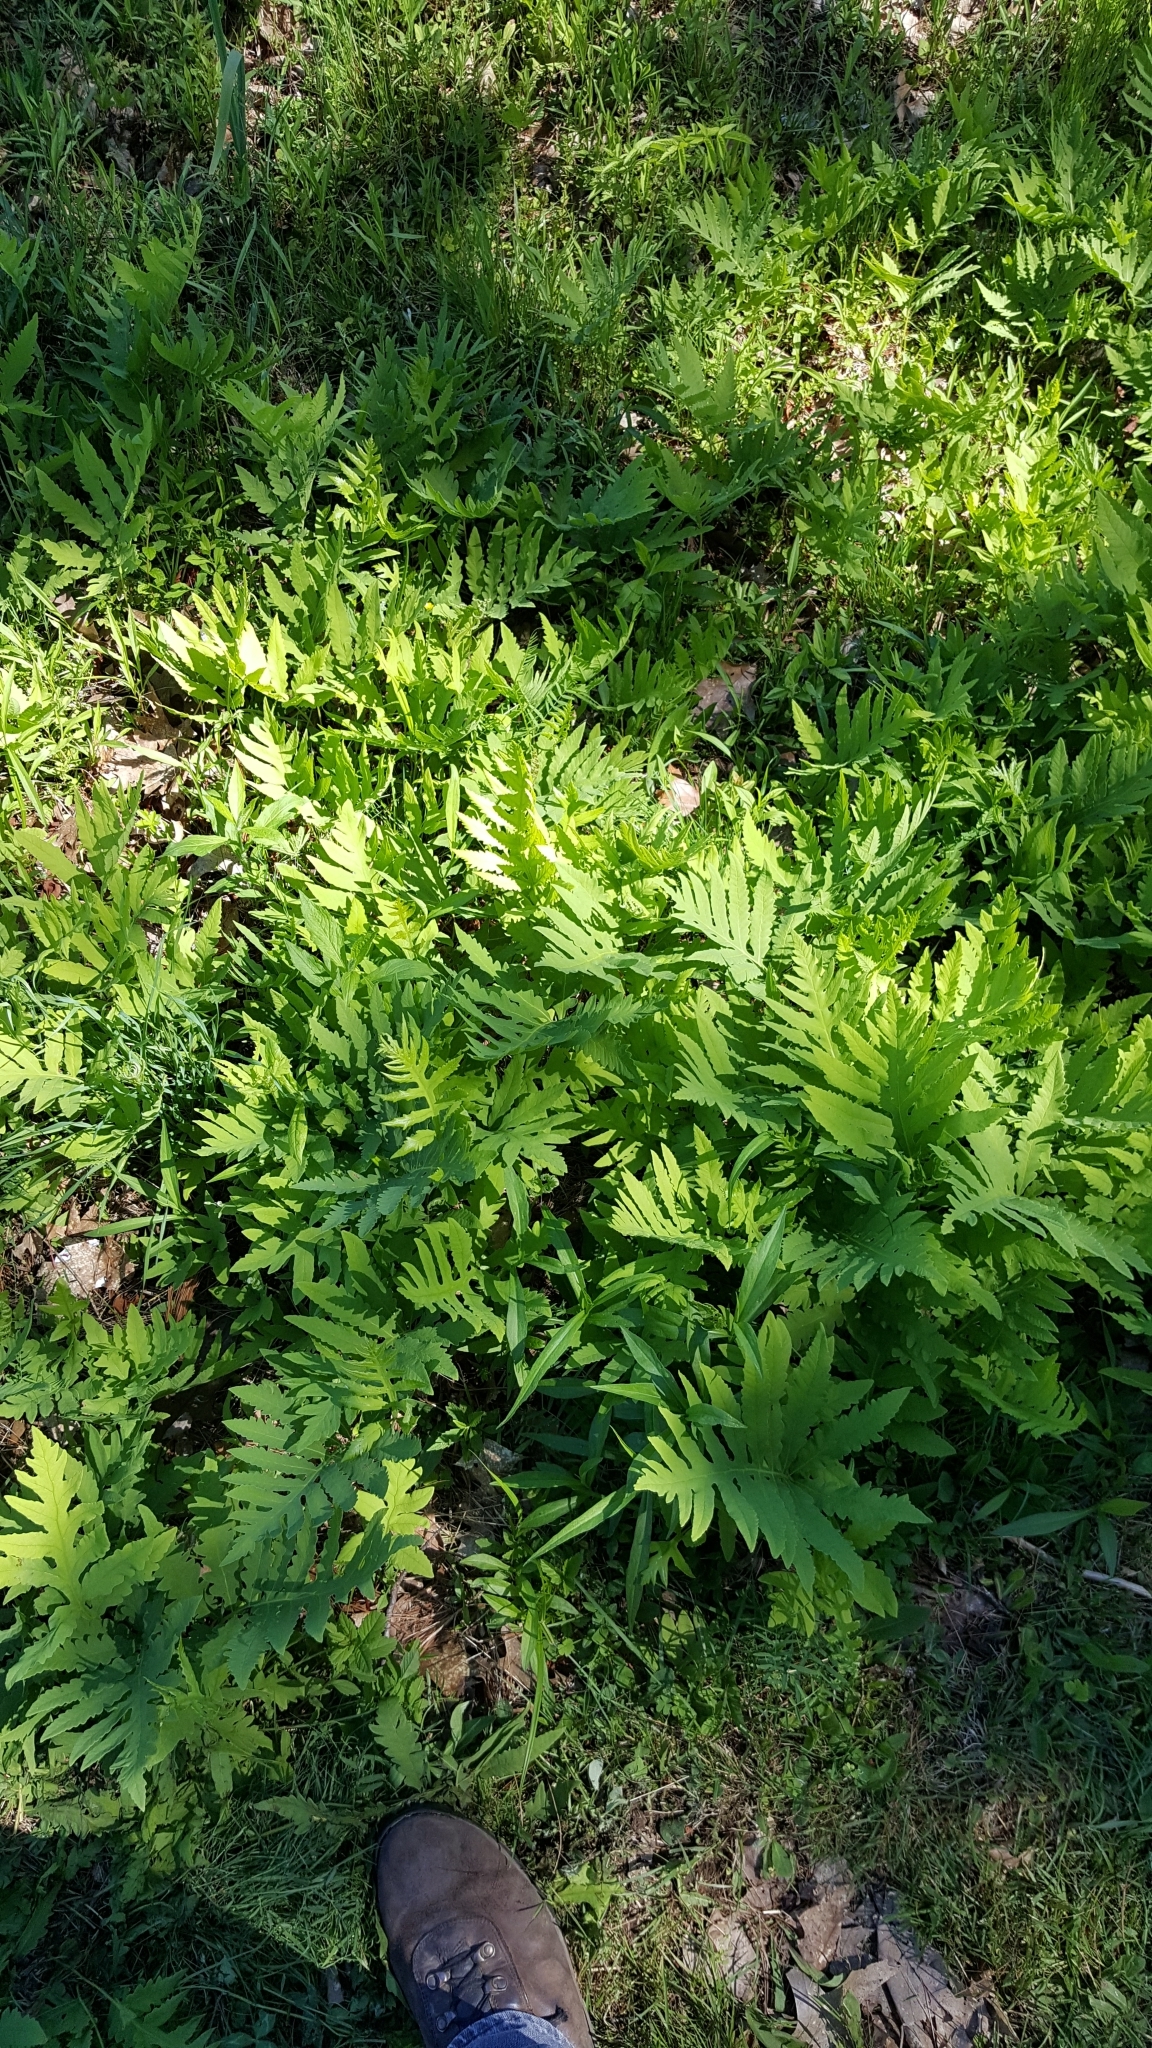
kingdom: Plantae
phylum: Tracheophyta
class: Polypodiopsida
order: Polypodiales
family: Onocleaceae
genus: Onoclea
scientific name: Onoclea sensibilis
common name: Sensitive fern
